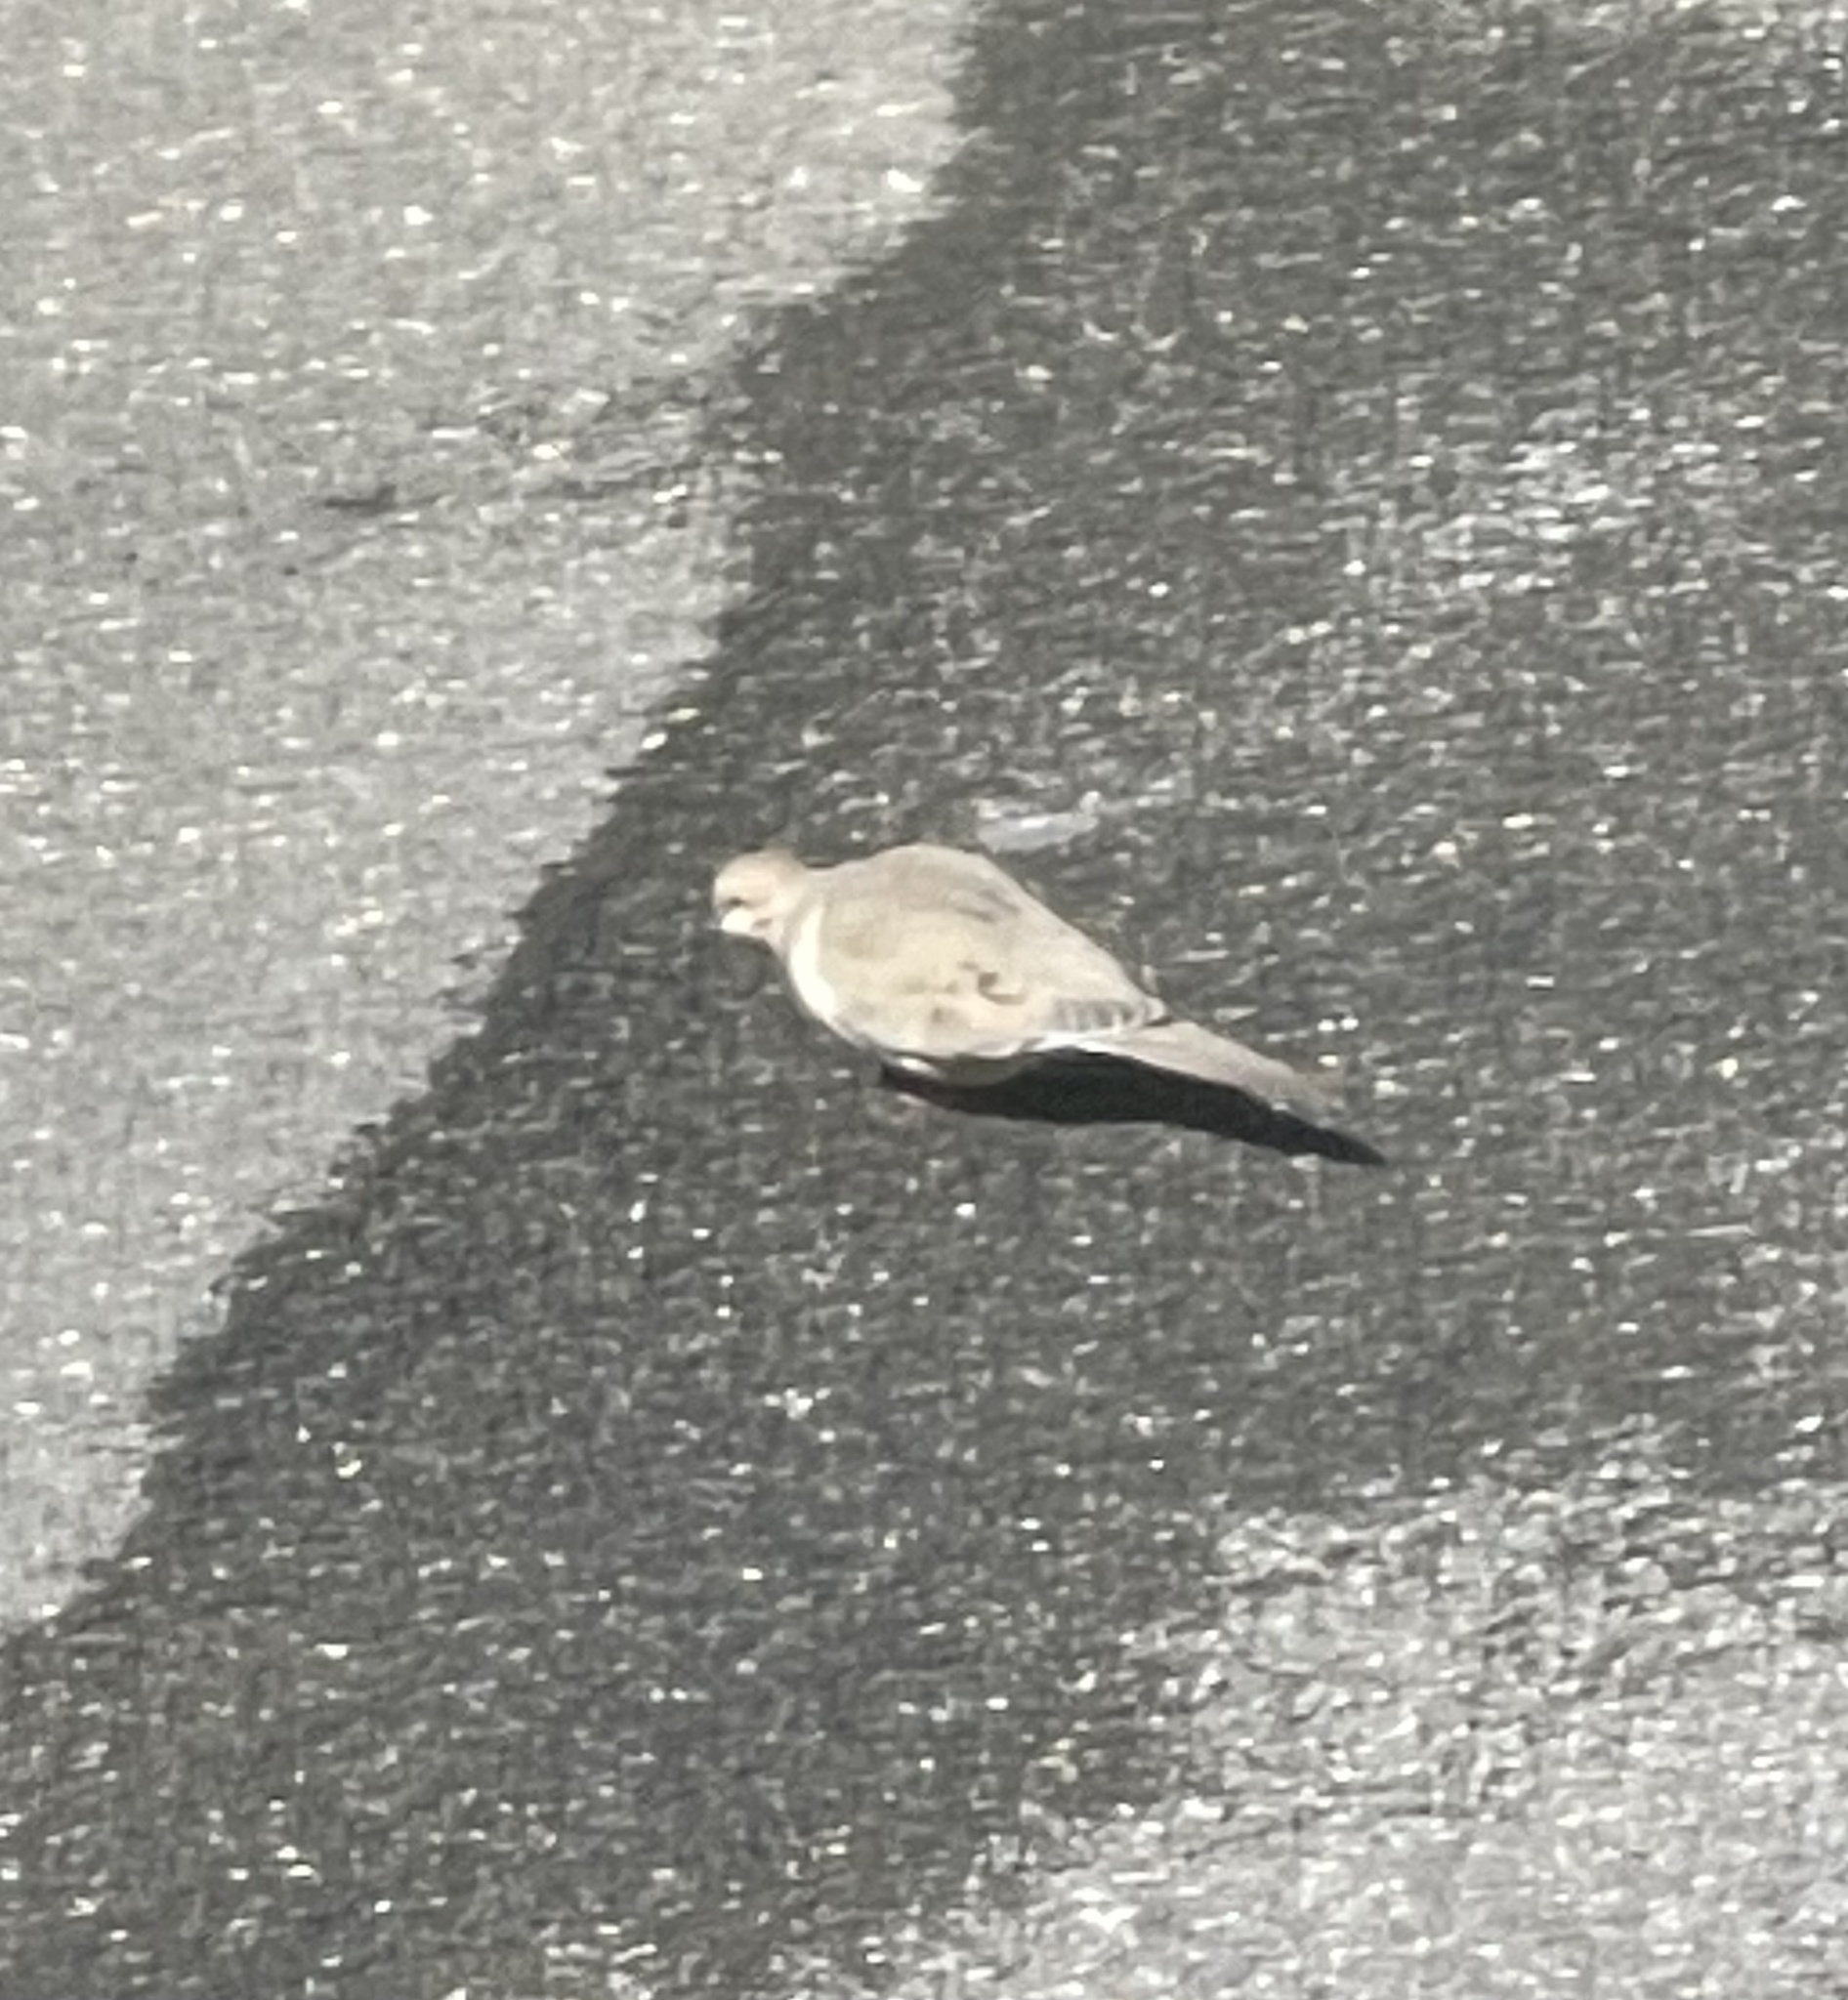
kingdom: Animalia
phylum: Chordata
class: Aves
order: Columbiformes
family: Columbidae
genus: Zenaida
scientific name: Zenaida macroura
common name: Mourning dove
